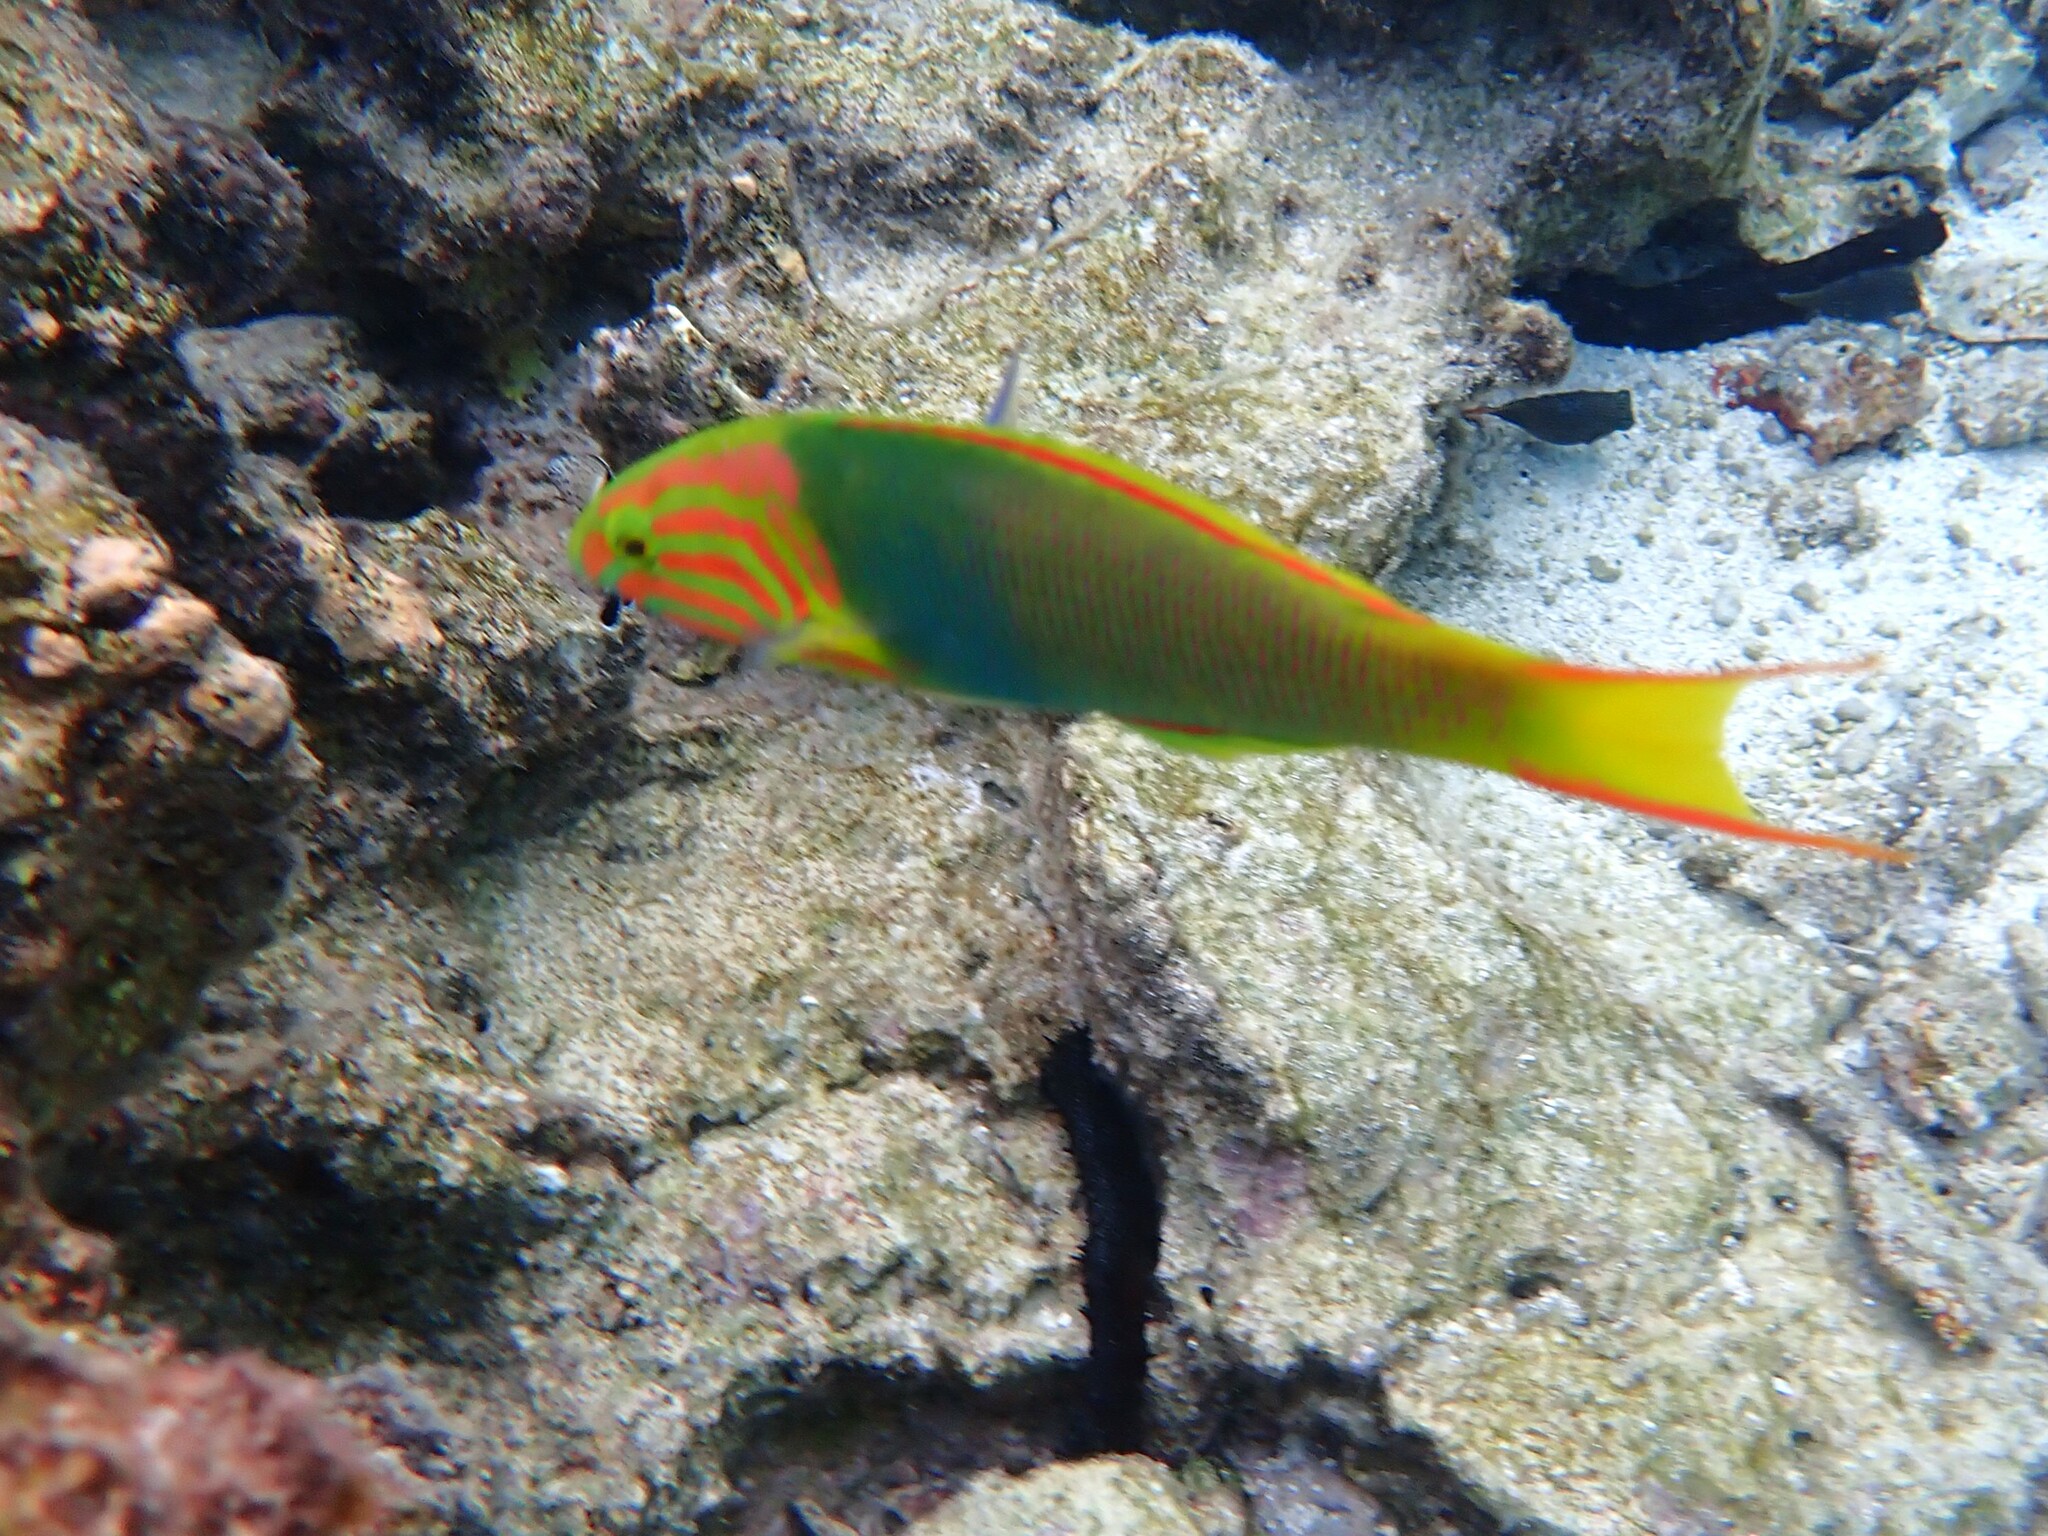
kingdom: Animalia
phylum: Chordata
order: Perciformes
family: Labridae
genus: Thalassoma
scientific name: Thalassoma lutescens
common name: Green moon wrasse
